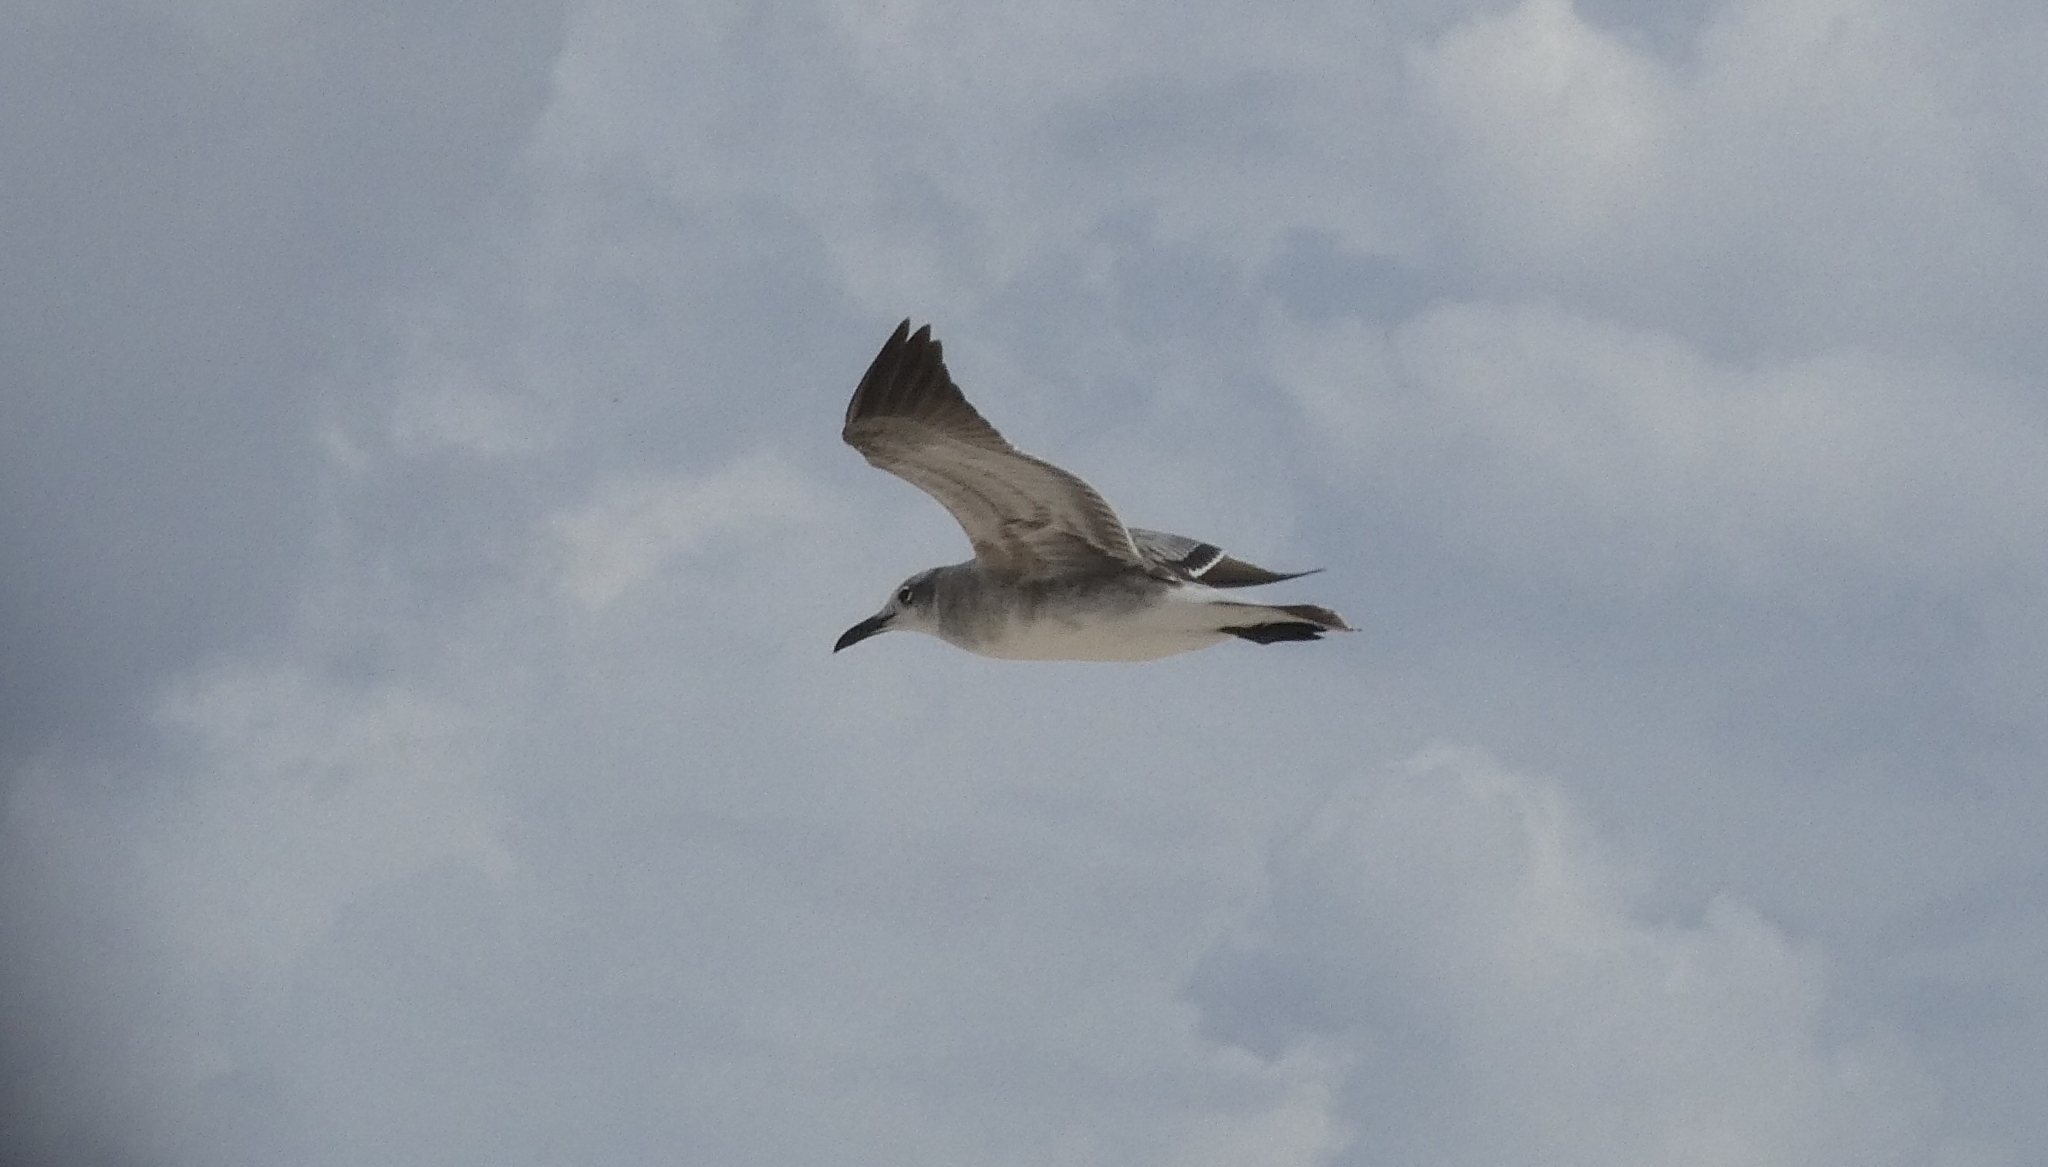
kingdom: Animalia
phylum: Chordata
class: Aves
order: Charadriiformes
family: Laridae
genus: Leucophaeus
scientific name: Leucophaeus atricilla
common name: Laughing gull
